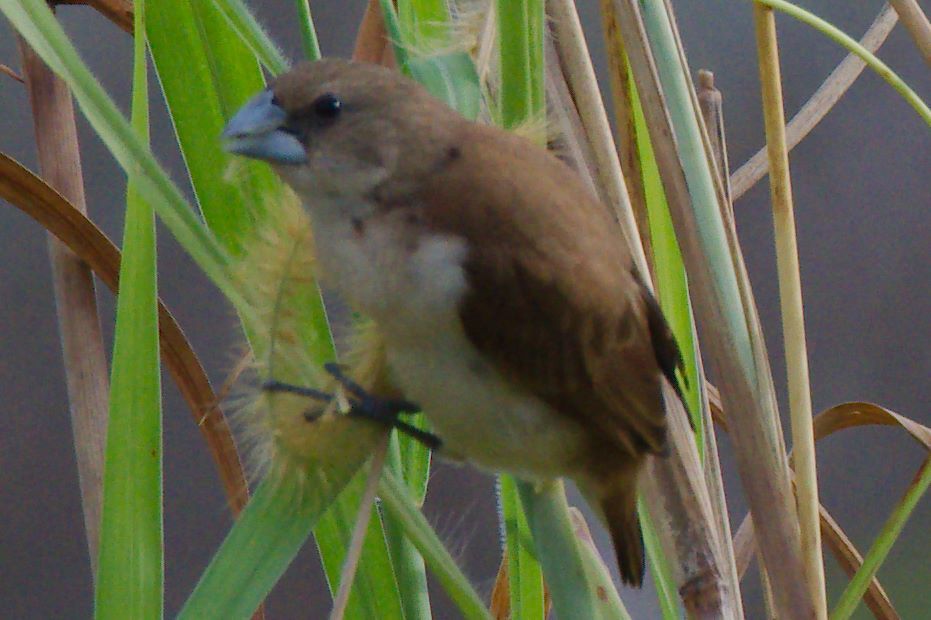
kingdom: Animalia
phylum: Chordata
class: Aves
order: Passeriformes
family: Estrildidae
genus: Lonchura
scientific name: Lonchura malacca
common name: Tricolored munia
